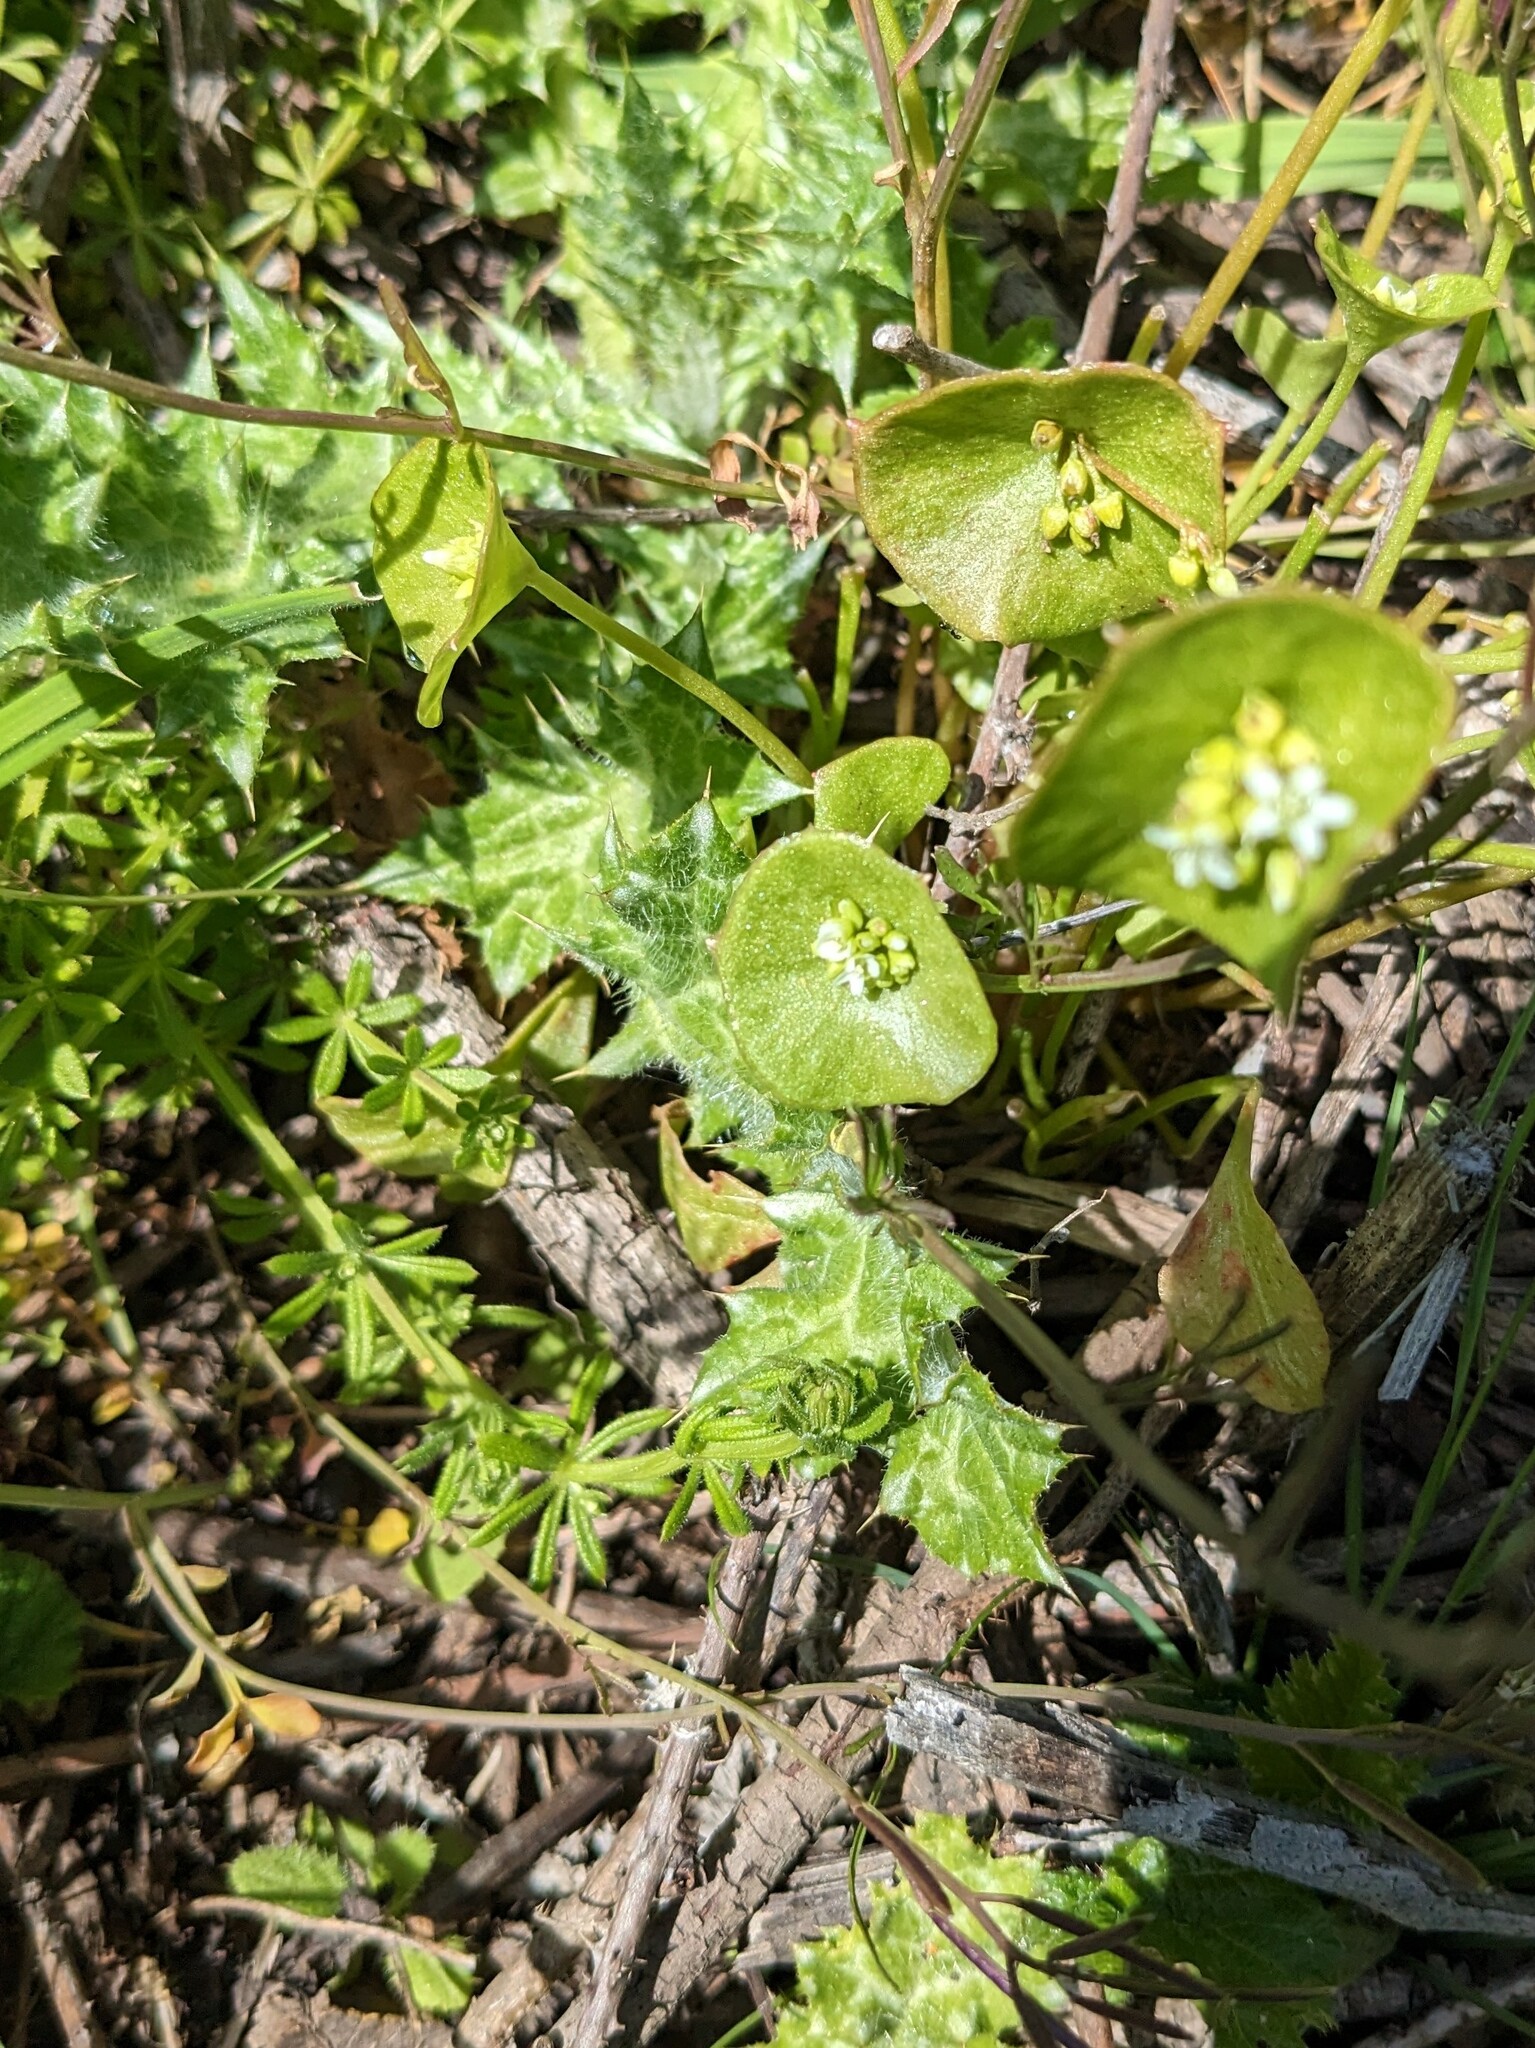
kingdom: Plantae
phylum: Tracheophyta
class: Magnoliopsida
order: Caryophyllales
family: Montiaceae
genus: Claytonia
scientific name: Claytonia perfoliata
